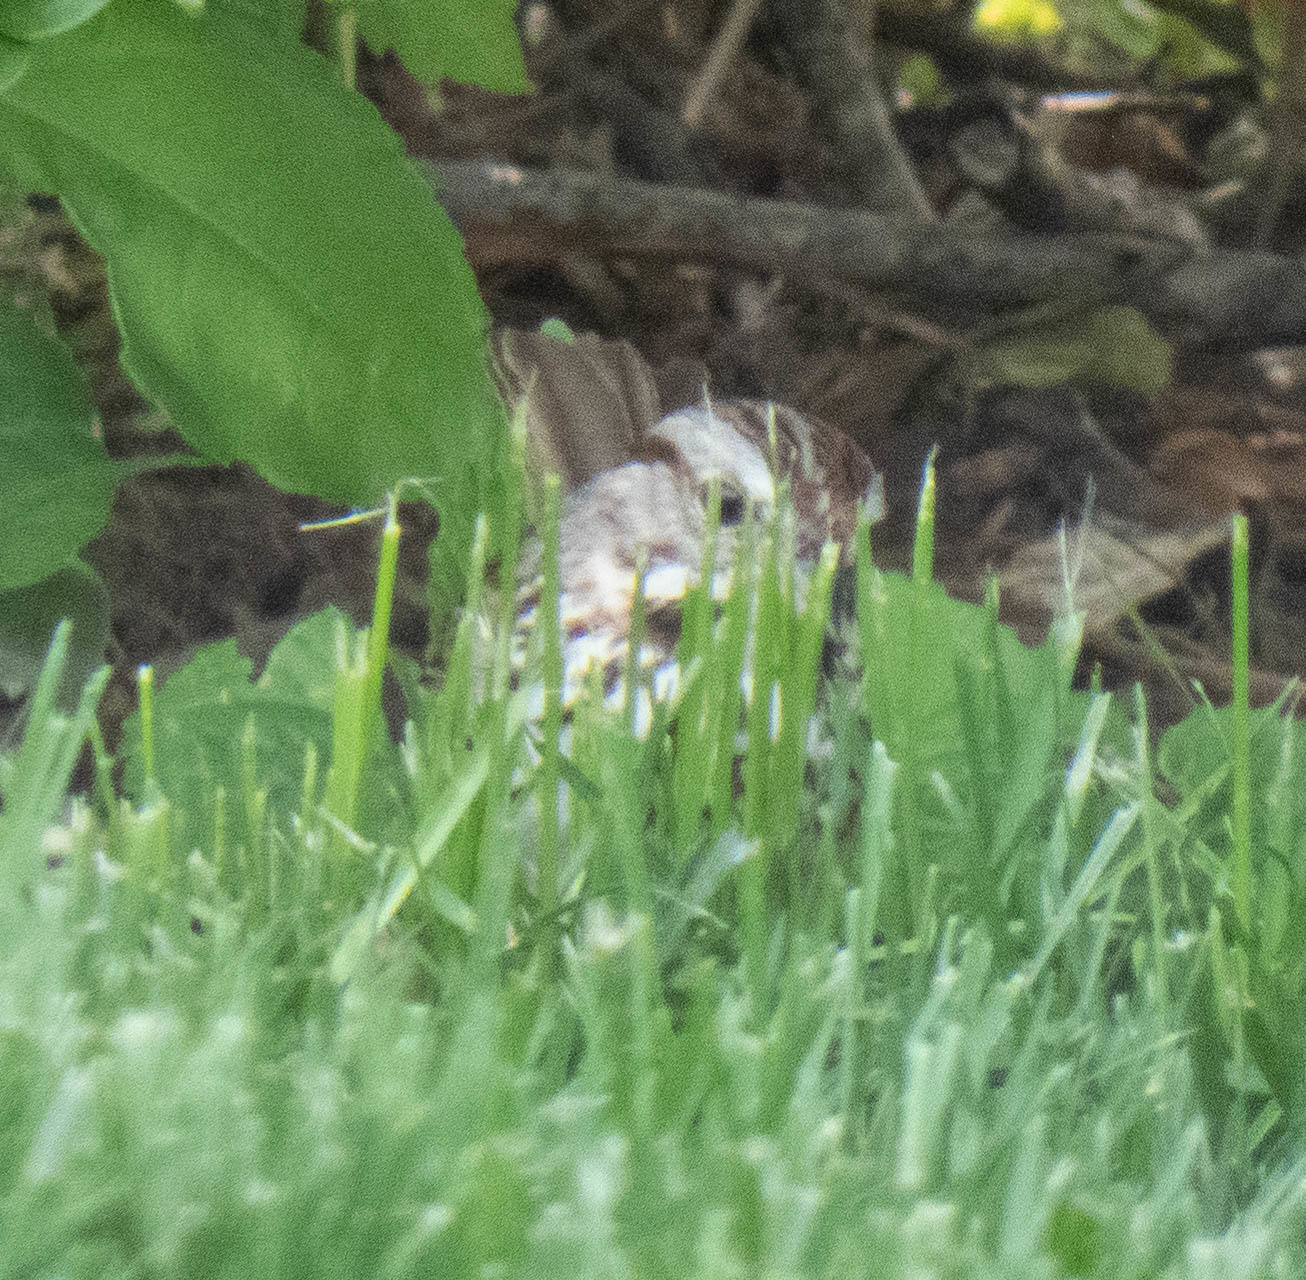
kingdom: Animalia
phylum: Chordata
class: Aves
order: Passeriformes
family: Passerellidae
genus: Melospiza
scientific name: Melospiza melodia
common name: Song sparrow
